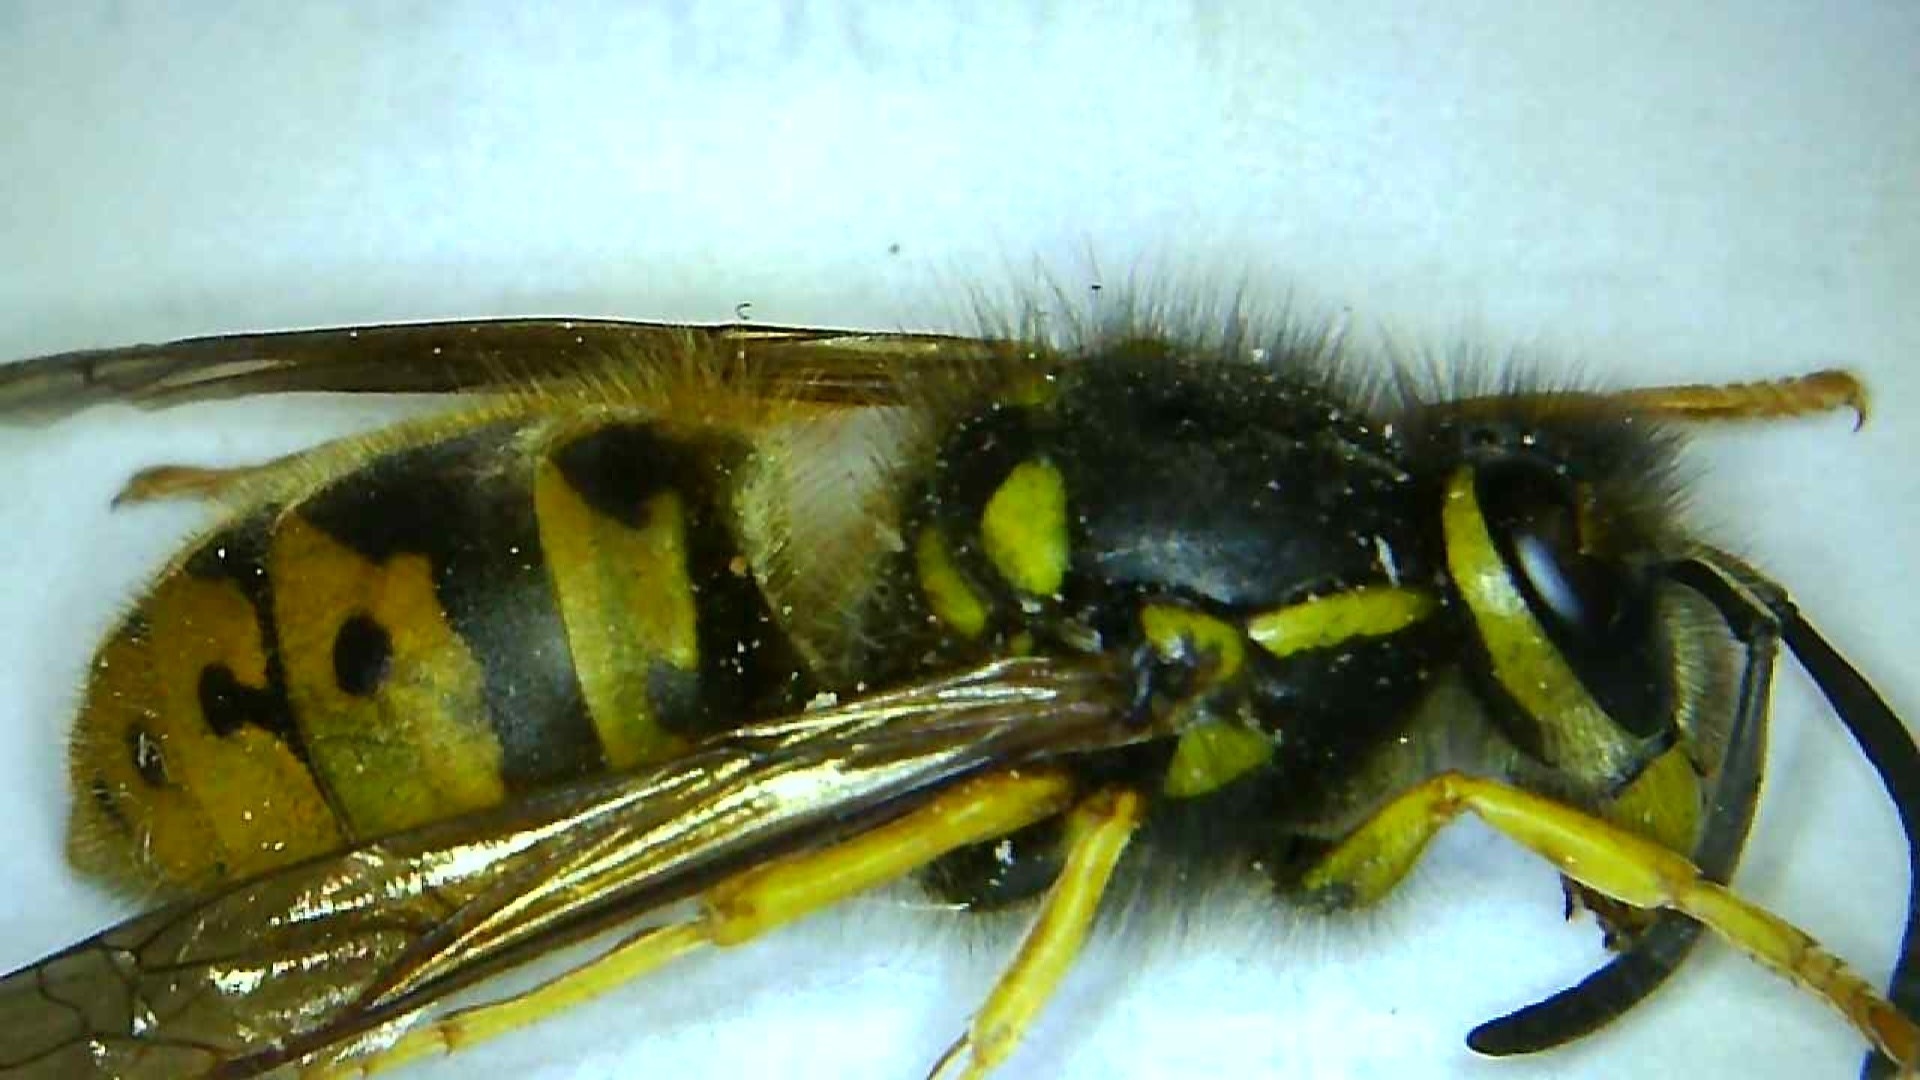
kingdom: Animalia
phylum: Arthropoda
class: Insecta
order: Hymenoptera
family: Vespidae
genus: Vespula
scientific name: Vespula germanica
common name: German wasp
